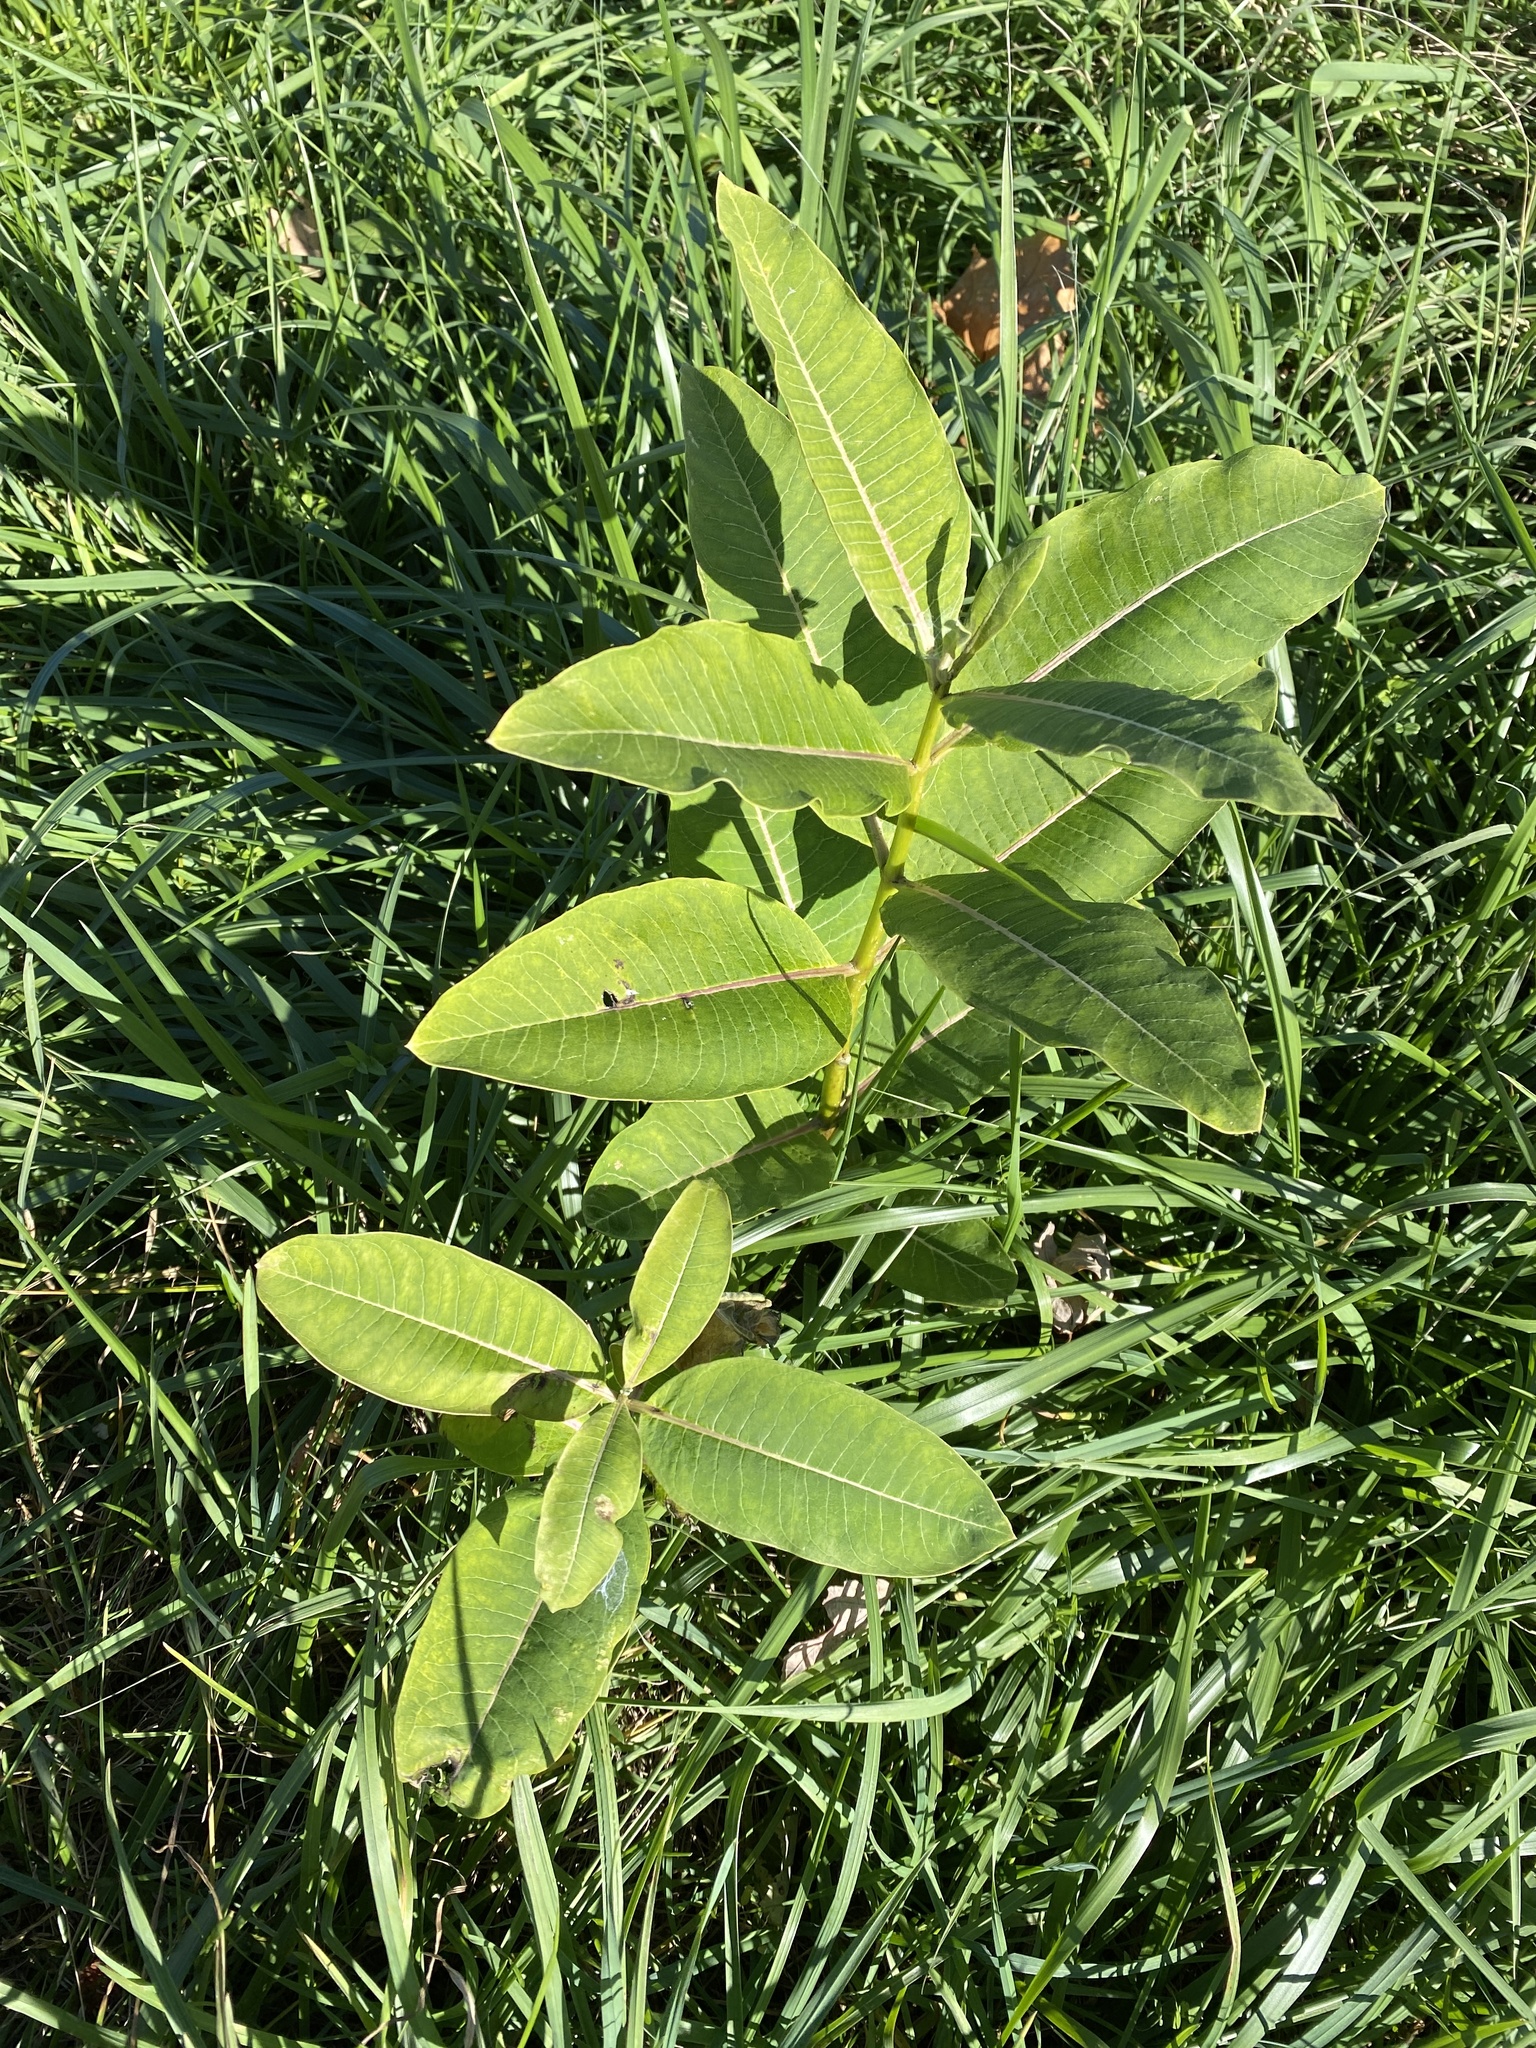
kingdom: Plantae
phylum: Tracheophyta
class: Magnoliopsida
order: Gentianales
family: Apocynaceae
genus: Asclepias
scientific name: Asclepias syriaca
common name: Common milkweed
